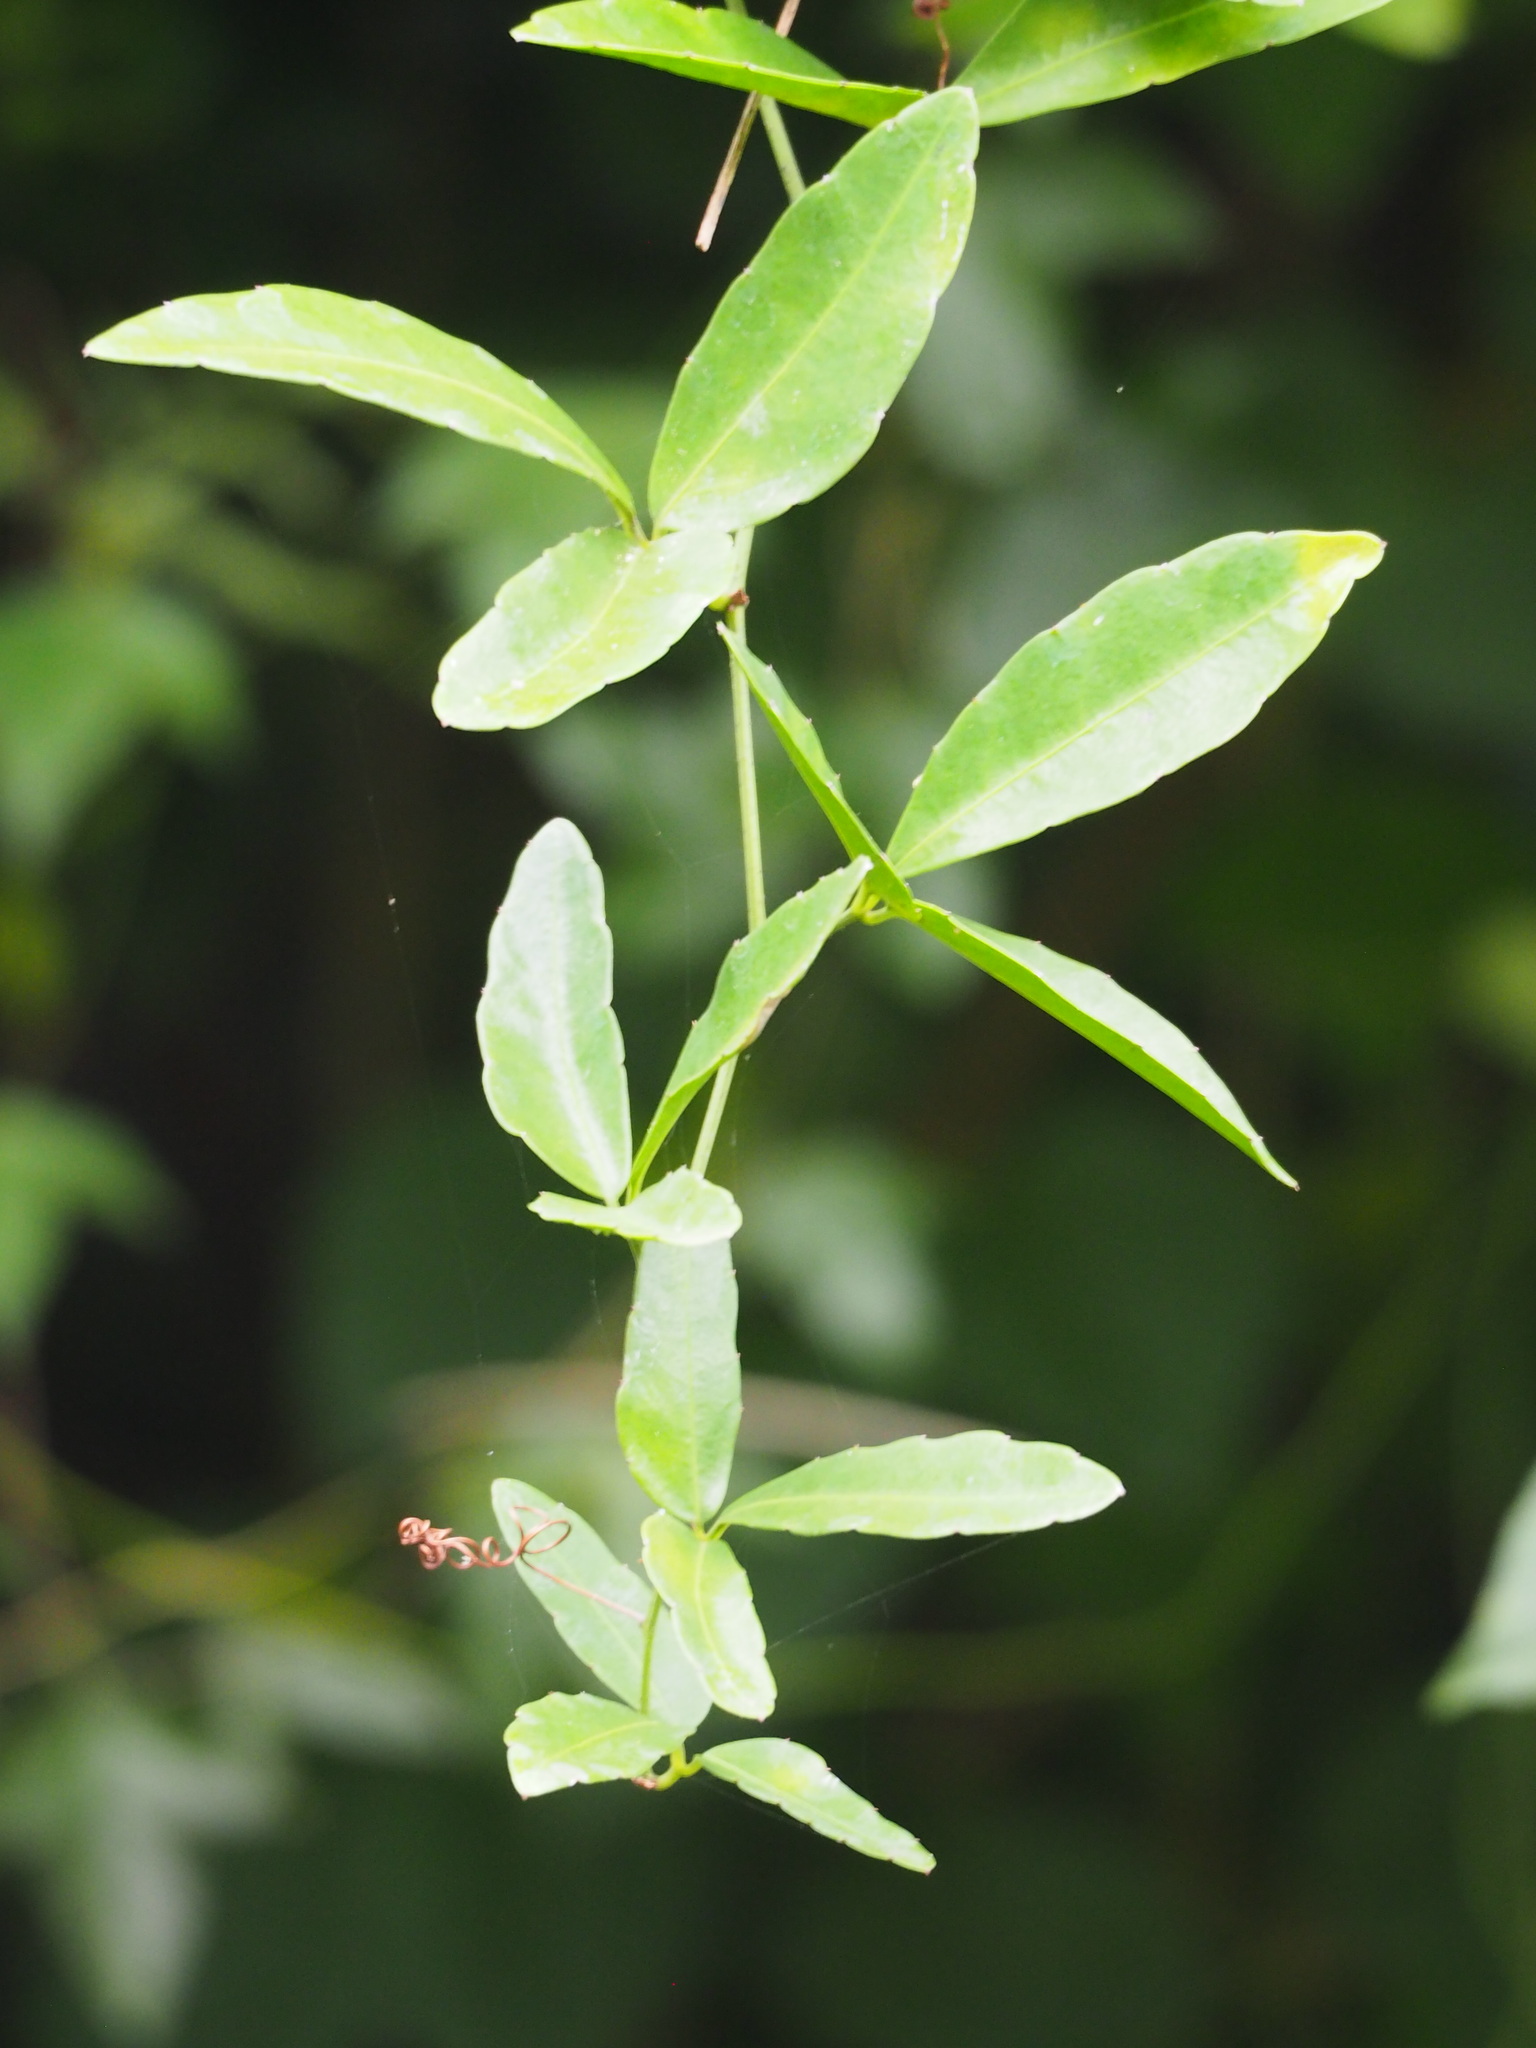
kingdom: Plantae
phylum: Tracheophyta
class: Magnoliopsida
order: Vitales
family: Vitaceae
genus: Tetrastigma
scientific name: Tetrastigma formosanum
